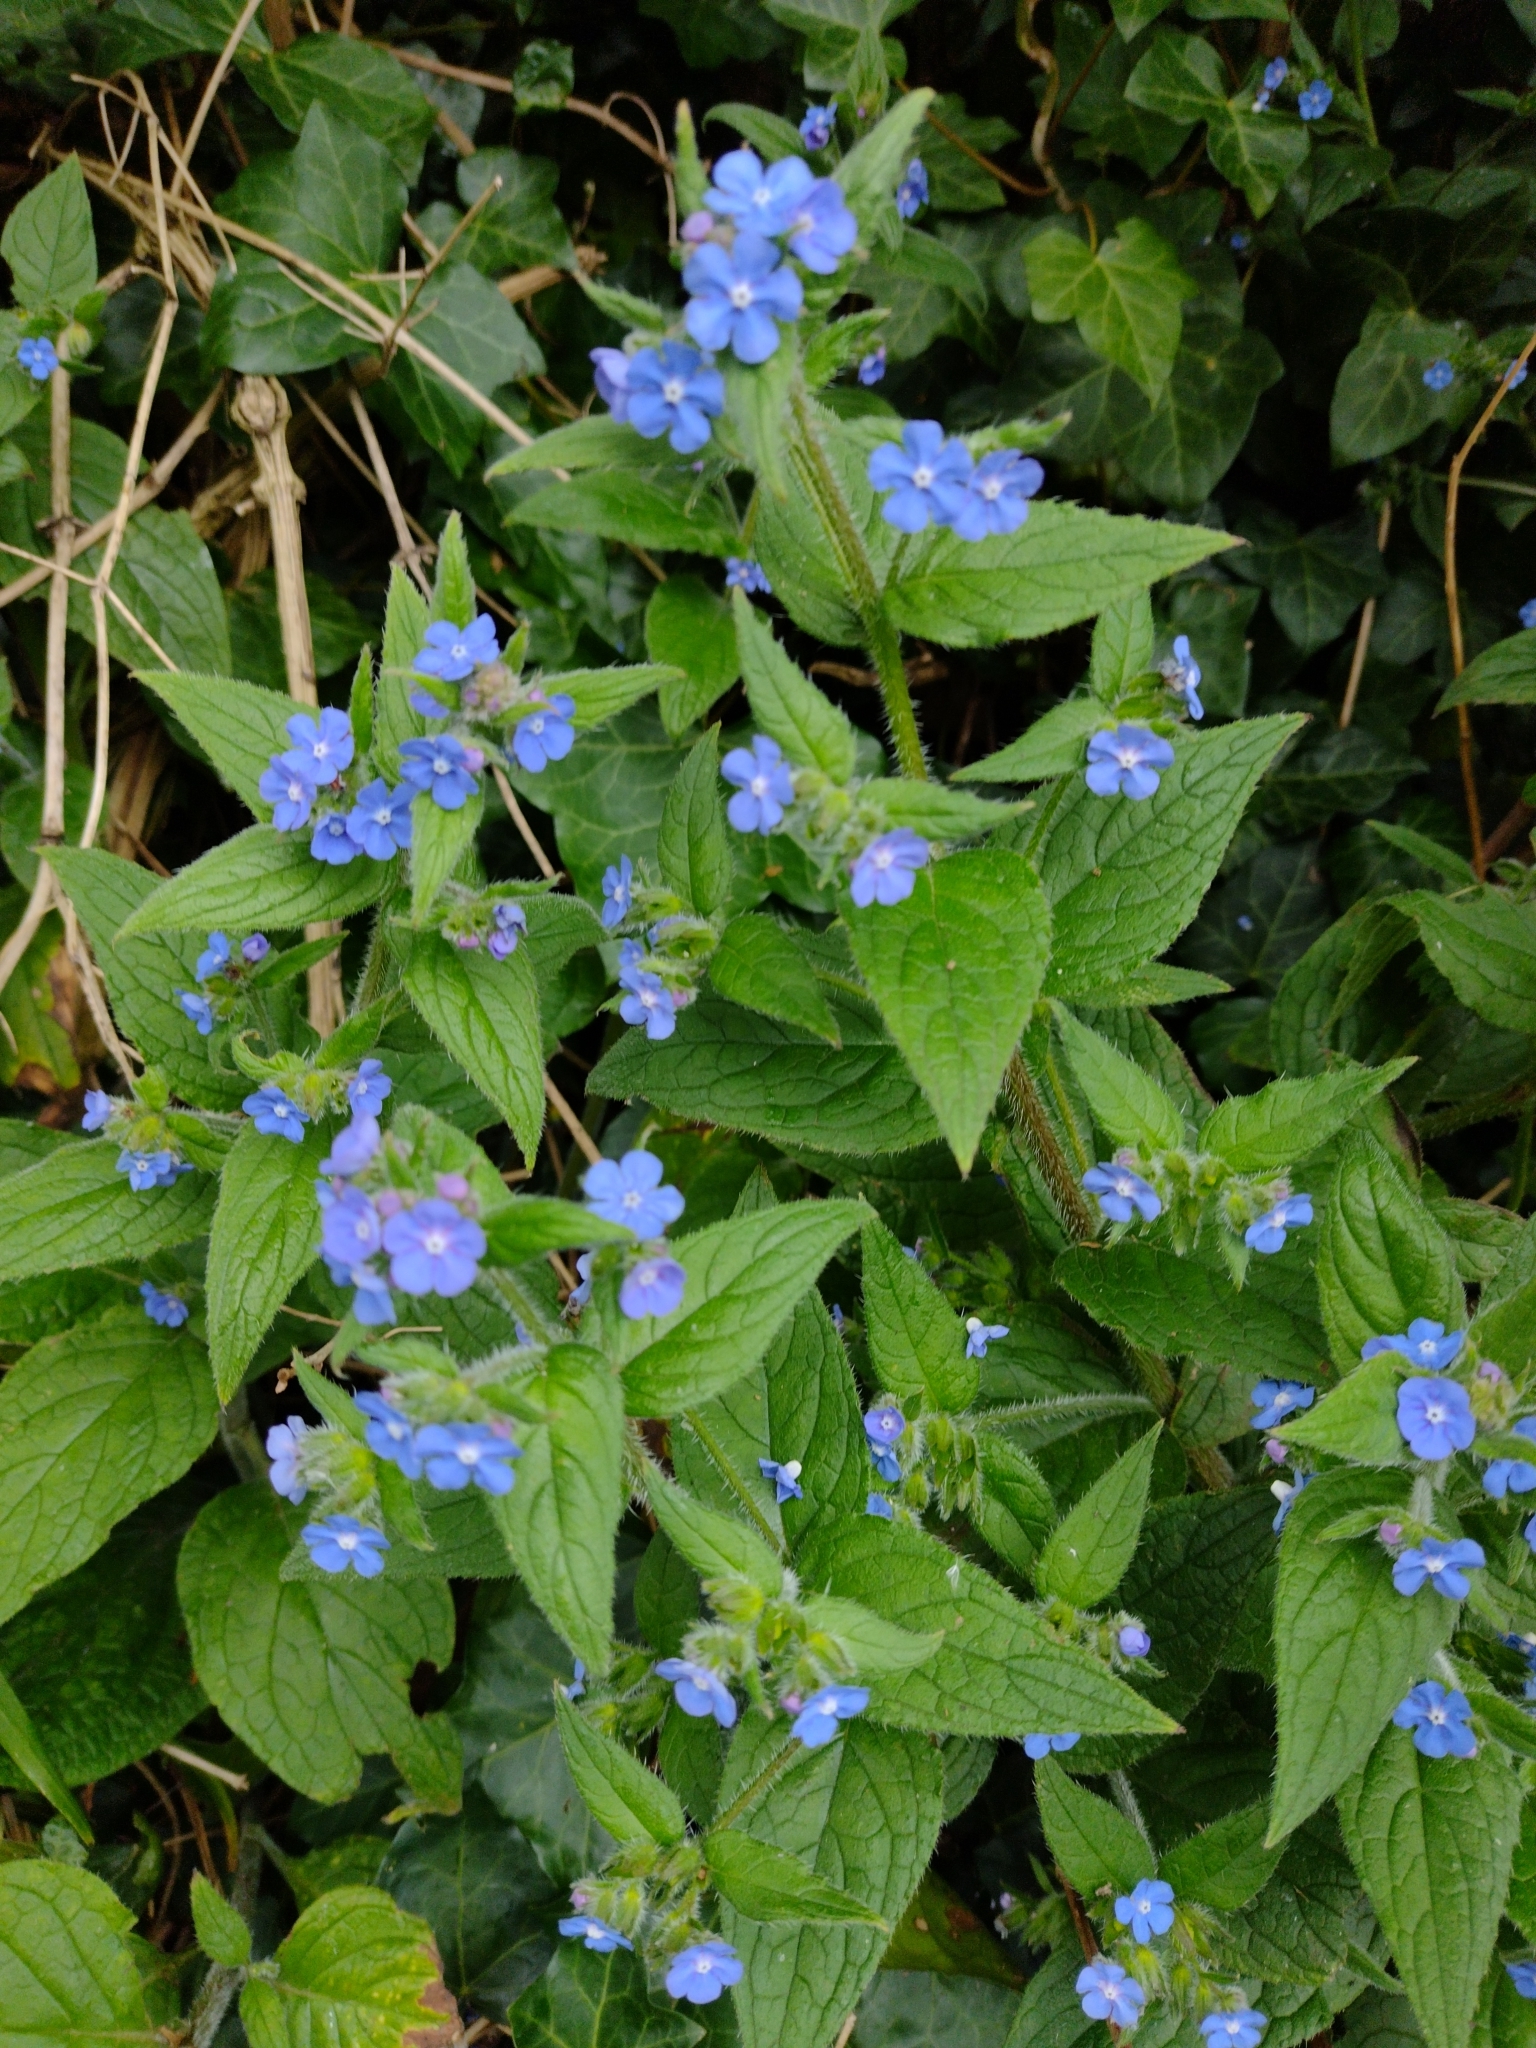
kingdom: Plantae
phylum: Tracheophyta
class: Magnoliopsida
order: Boraginales
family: Boraginaceae
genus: Pentaglottis
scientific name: Pentaglottis sempervirens
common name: Green alkanet
